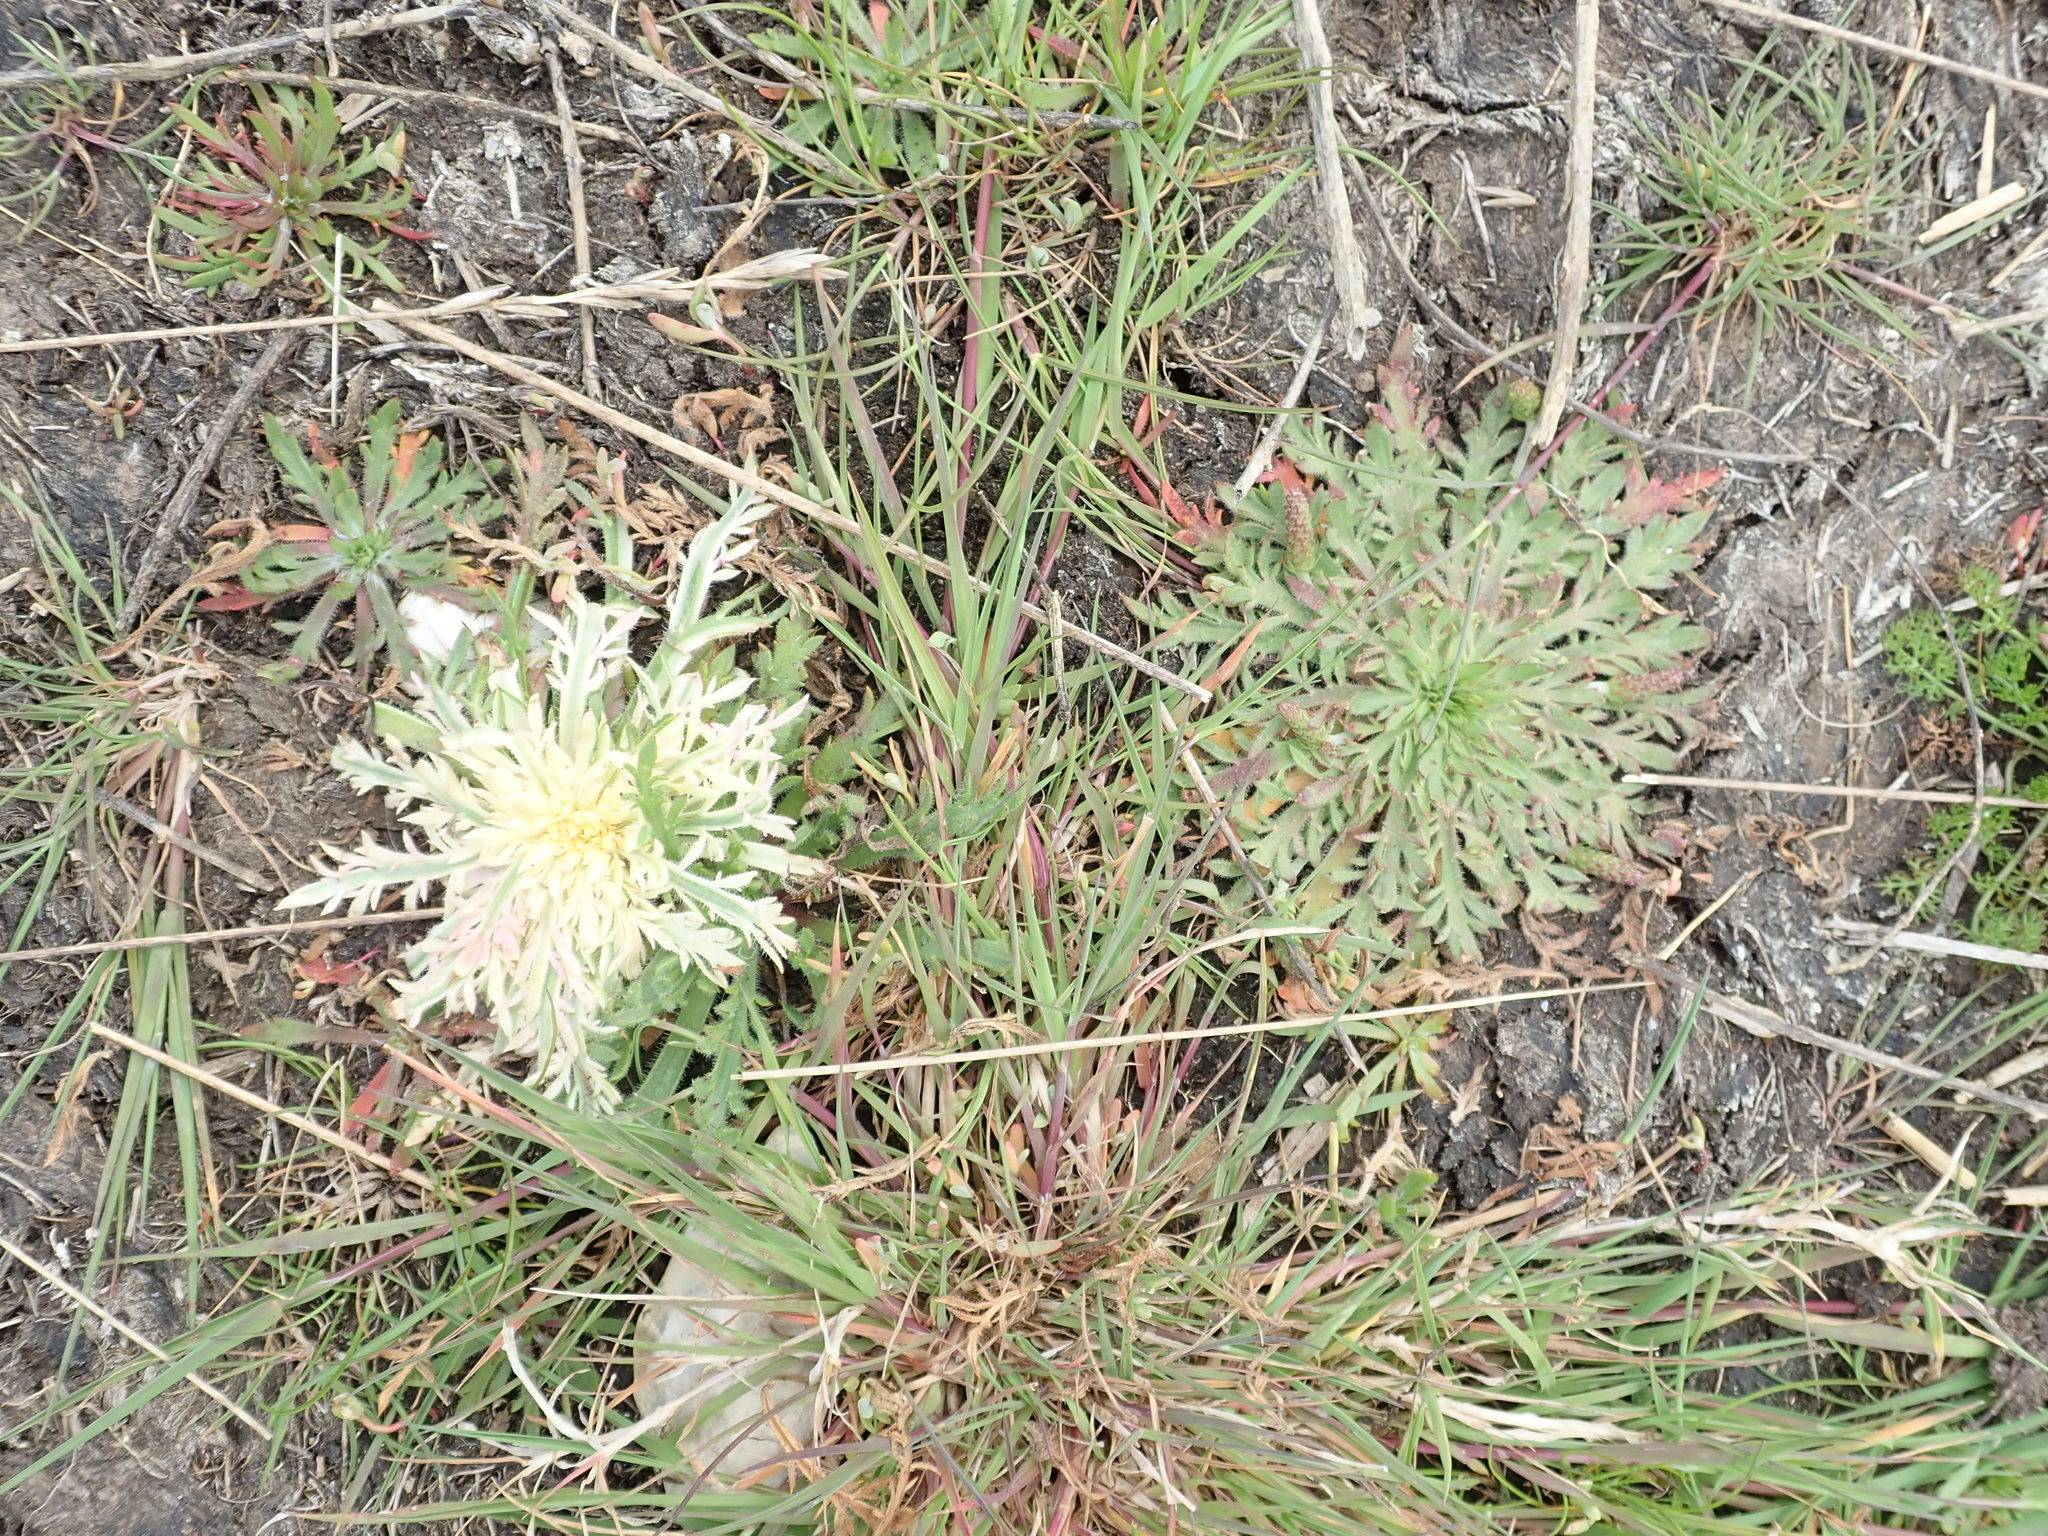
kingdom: Plantae
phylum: Tracheophyta
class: Magnoliopsida
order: Lamiales
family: Plantaginaceae
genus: Plantago
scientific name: Plantago coronopus
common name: Buck's-horn plantain
